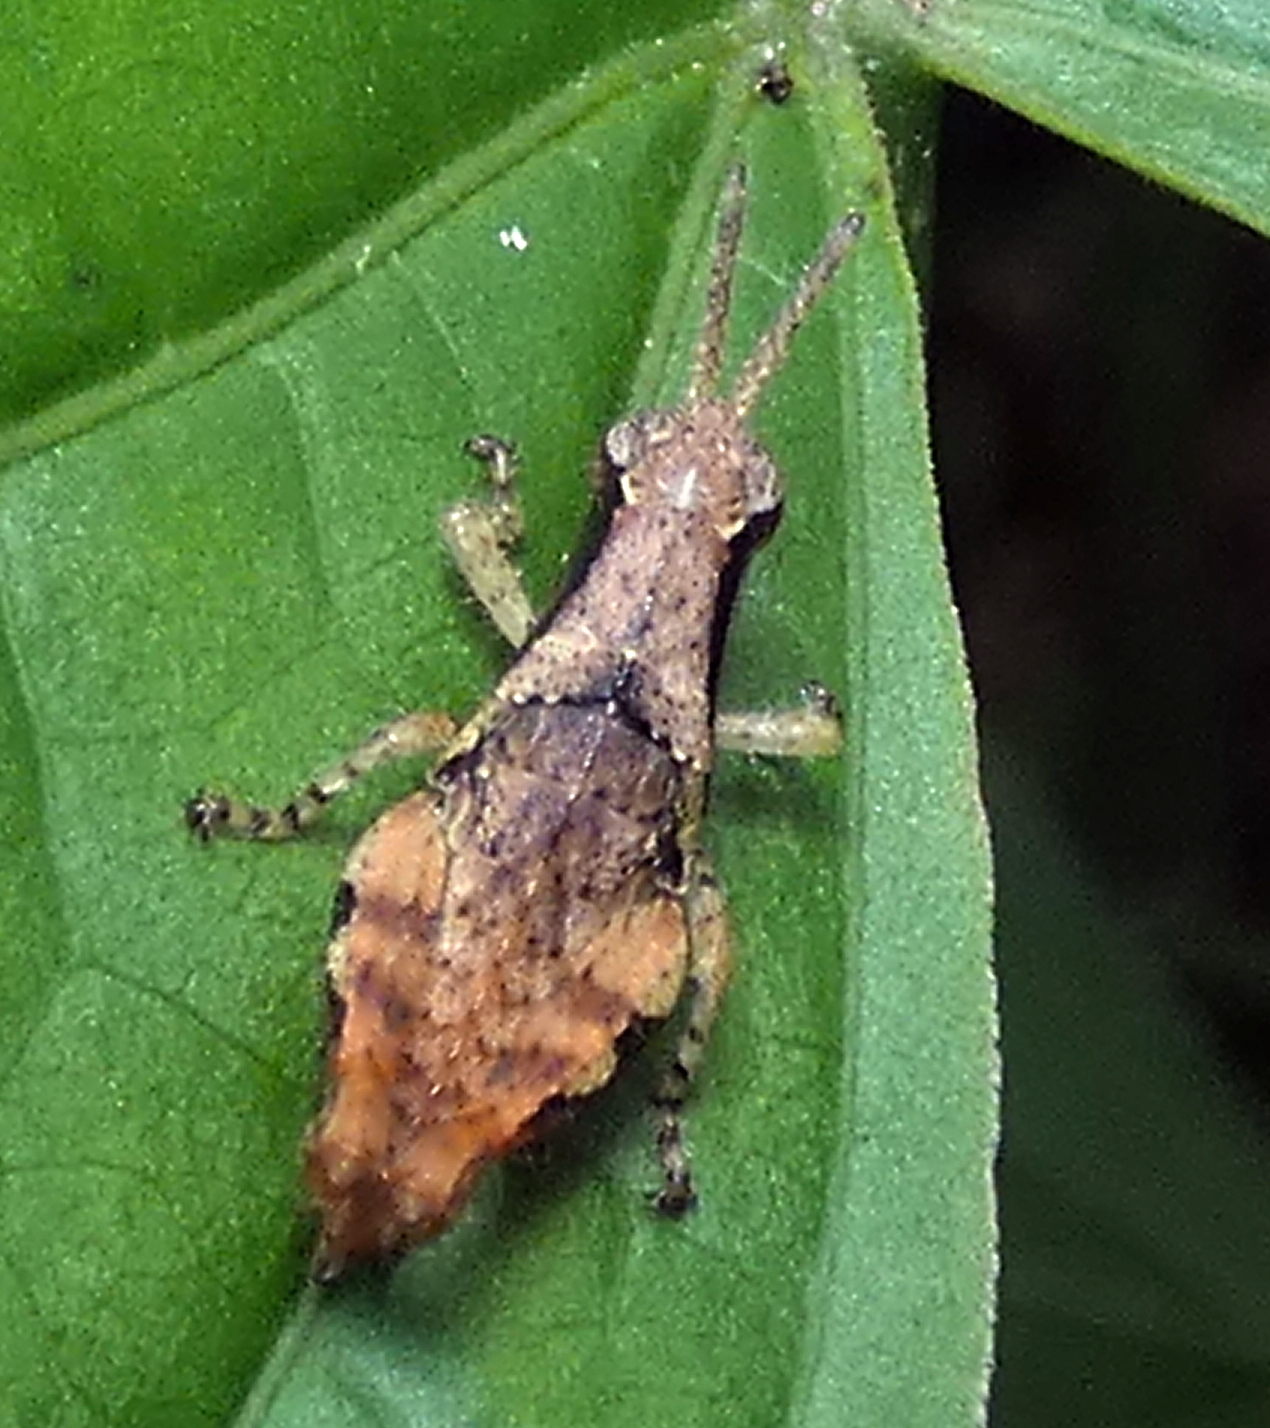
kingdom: Animalia
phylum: Arthropoda
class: Insecta
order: Orthoptera
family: Acrididae
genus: Eujivarus
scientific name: Eujivarus meridionalis
